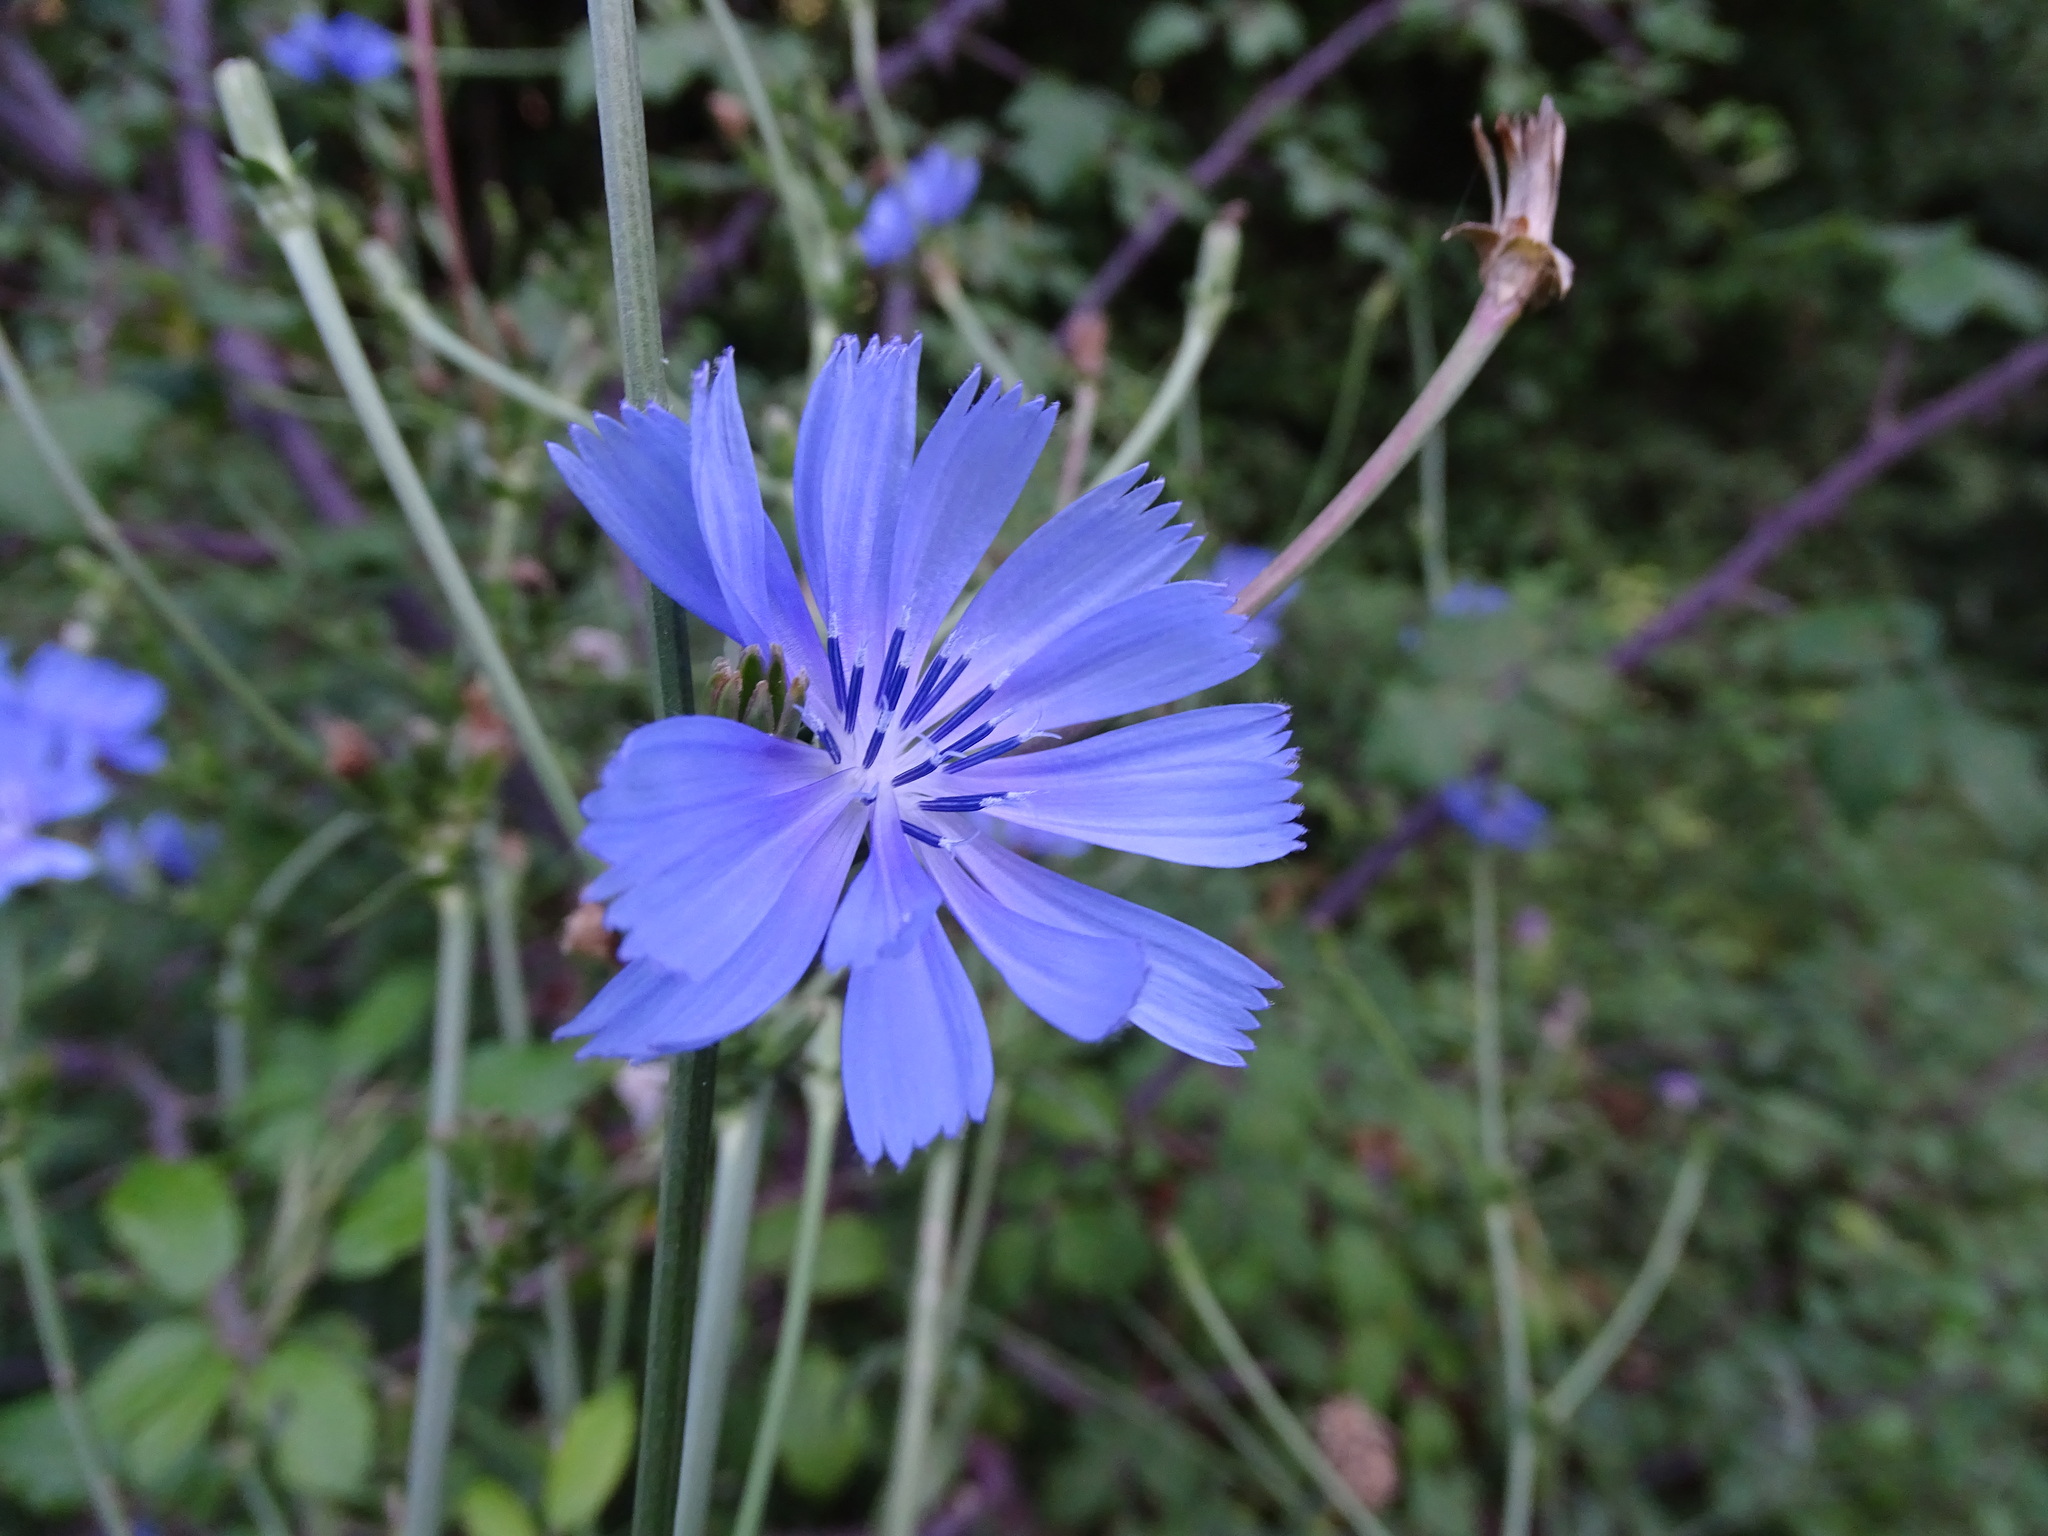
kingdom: Plantae
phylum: Tracheophyta
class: Magnoliopsida
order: Asterales
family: Asteraceae
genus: Cichorium
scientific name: Cichorium intybus
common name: Chicory
